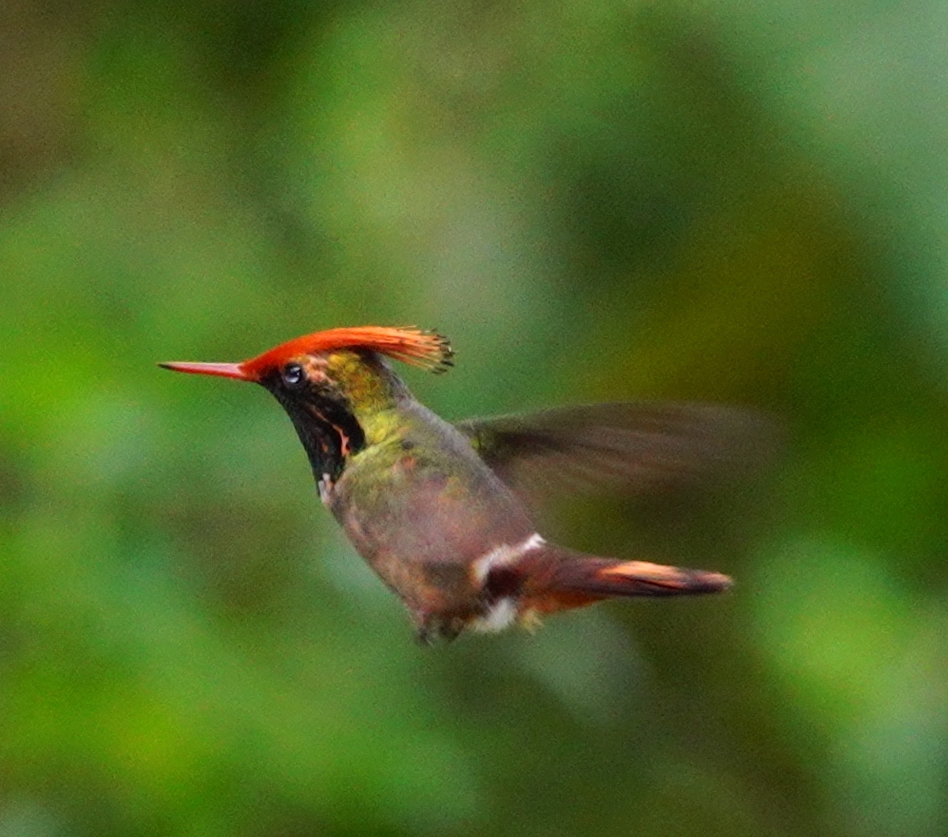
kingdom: Animalia
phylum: Chordata
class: Aves
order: Apodiformes
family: Trochilidae
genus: Lophornis
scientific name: Lophornis delattrei
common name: Rufous-crested coquette
